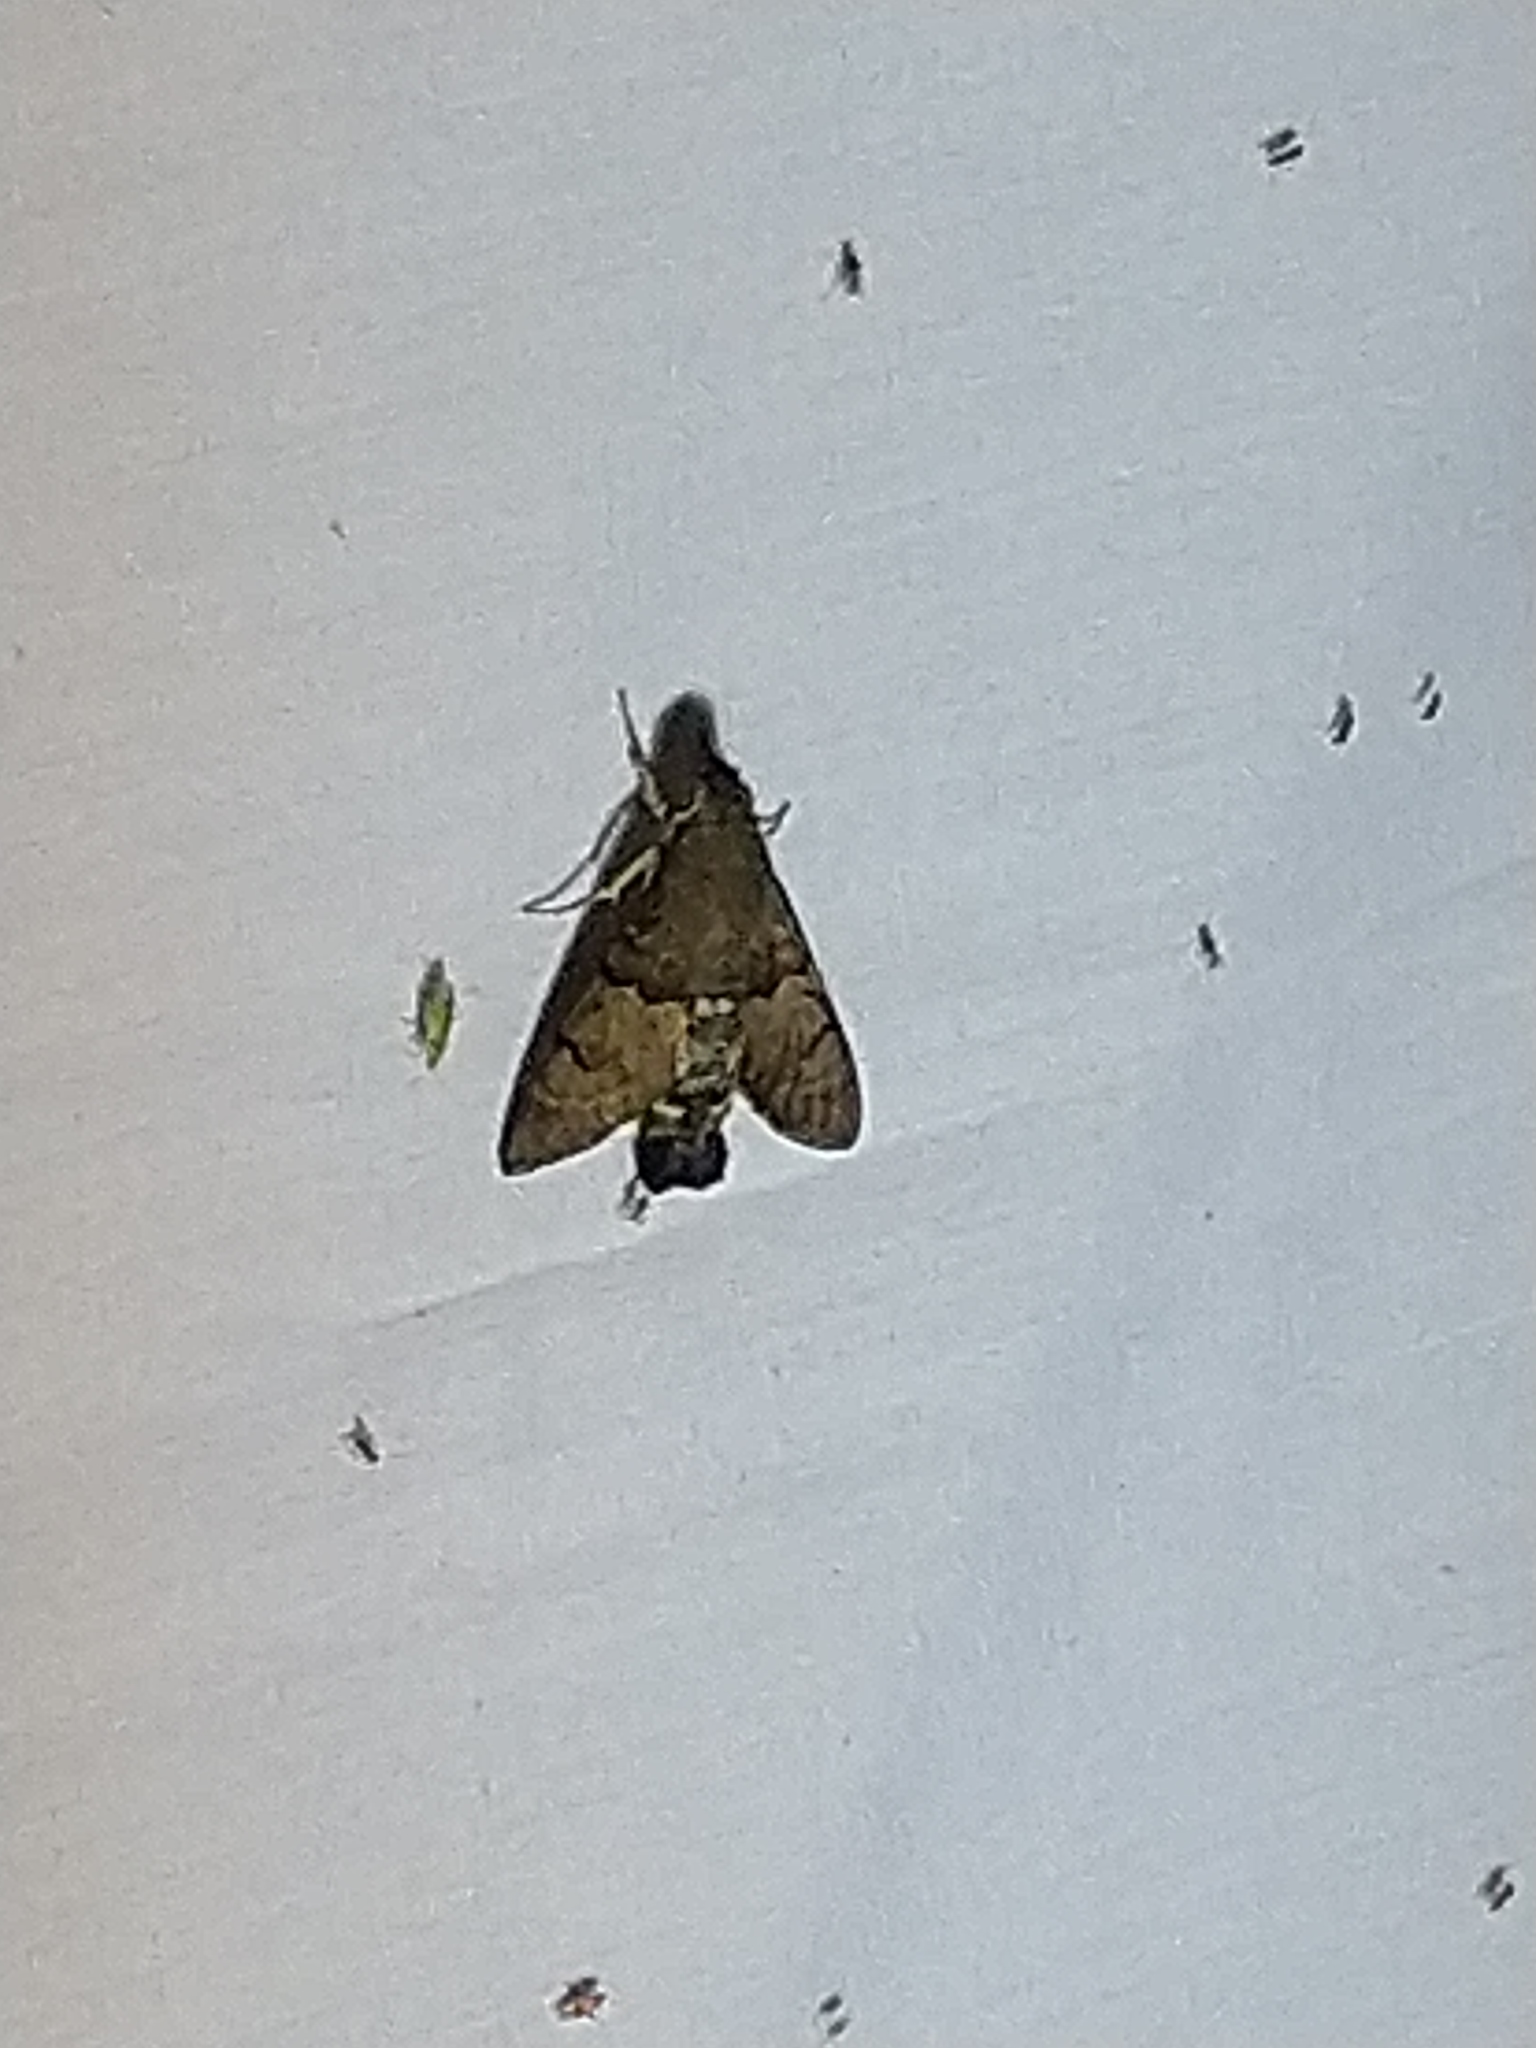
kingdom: Animalia
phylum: Arthropoda
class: Insecta
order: Lepidoptera
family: Sphingidae
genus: Macroglossum
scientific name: Macroglossum stellatarum
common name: Humming-bird hawk-moth
